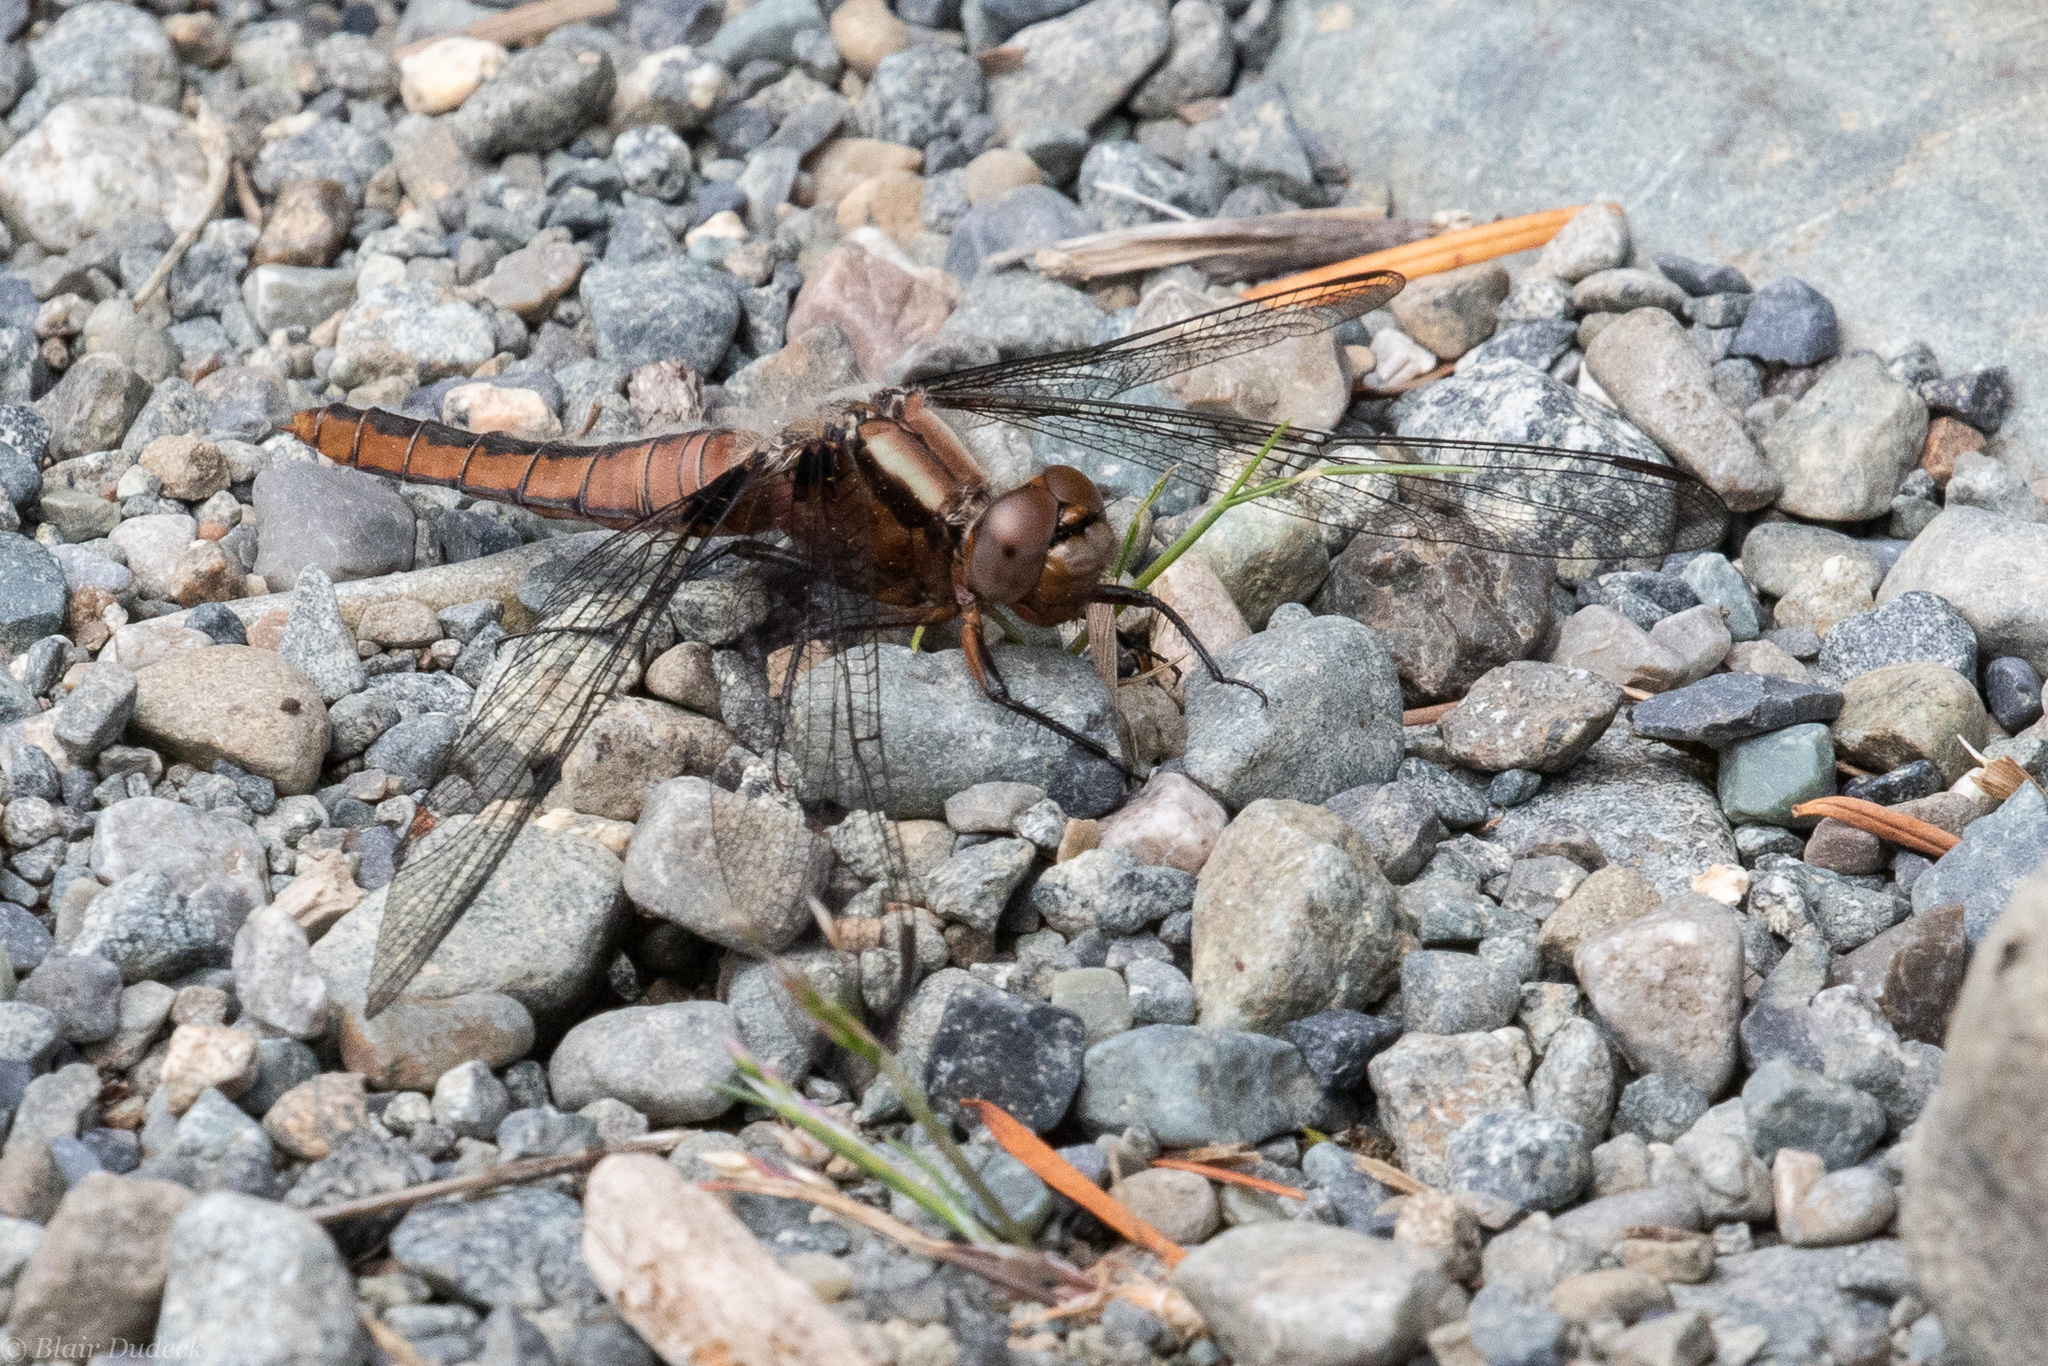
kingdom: Animalia
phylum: Arthropoda
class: Insecta
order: Odonata
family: Libellulidae
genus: Ladona
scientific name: Ladona julia
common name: Chalk-fronted corporal
